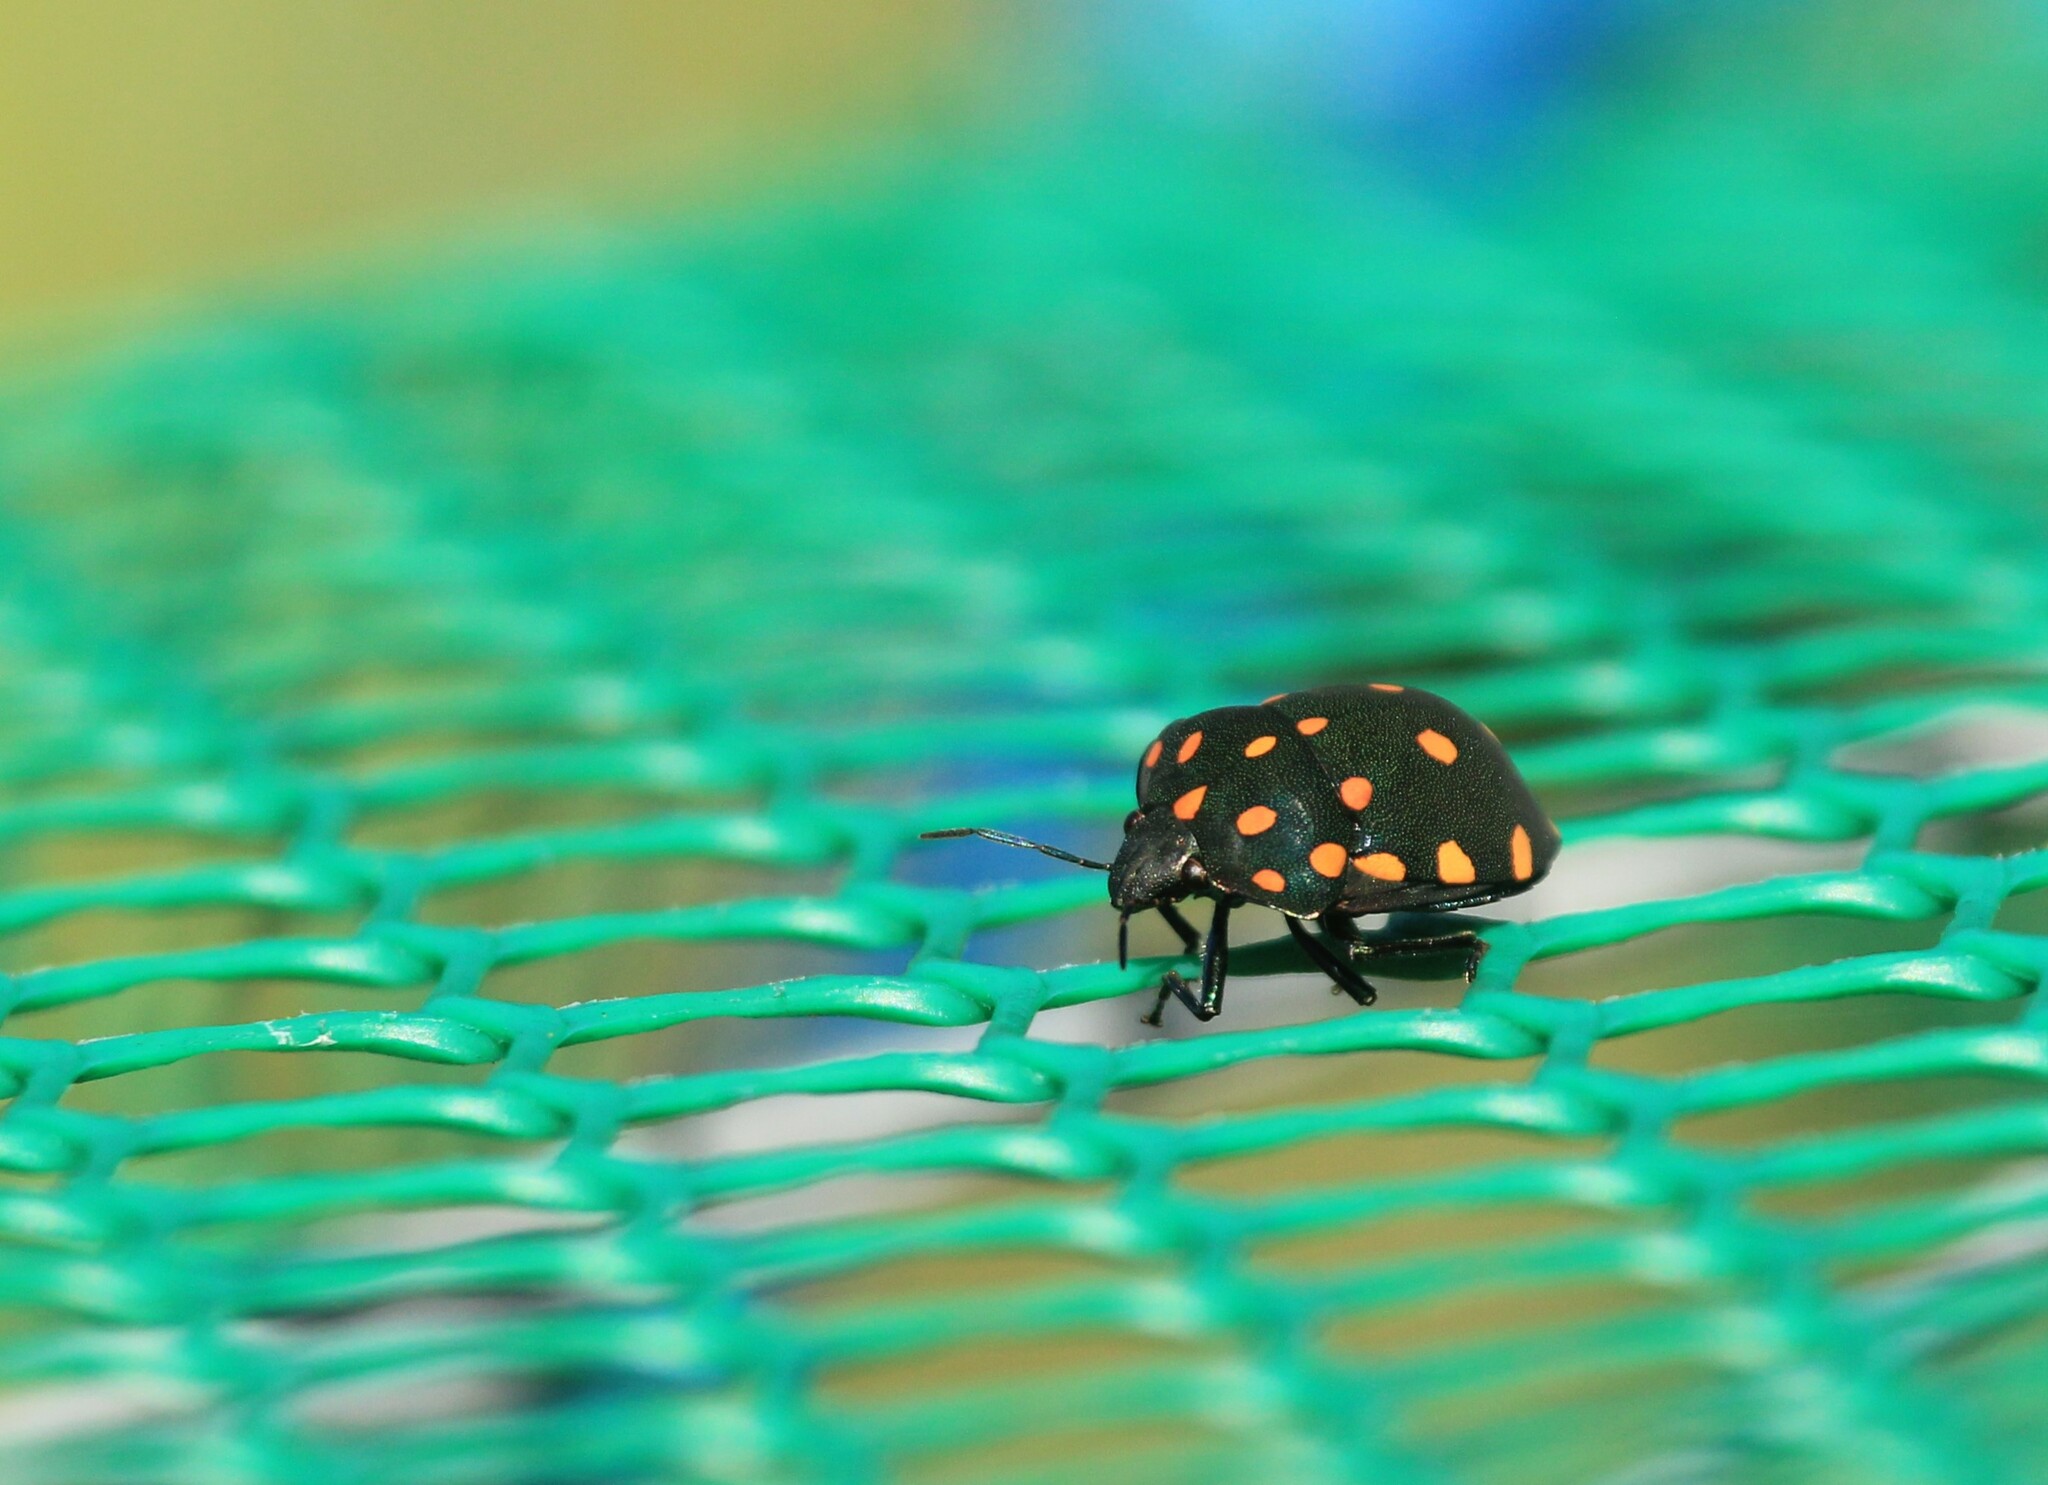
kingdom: Animalia
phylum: Arthropoda
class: Insecta
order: Hemiptera
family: Scutelleridae
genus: Pachycoris
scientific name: Pachycoris torridus
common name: Torrid jewel bug
